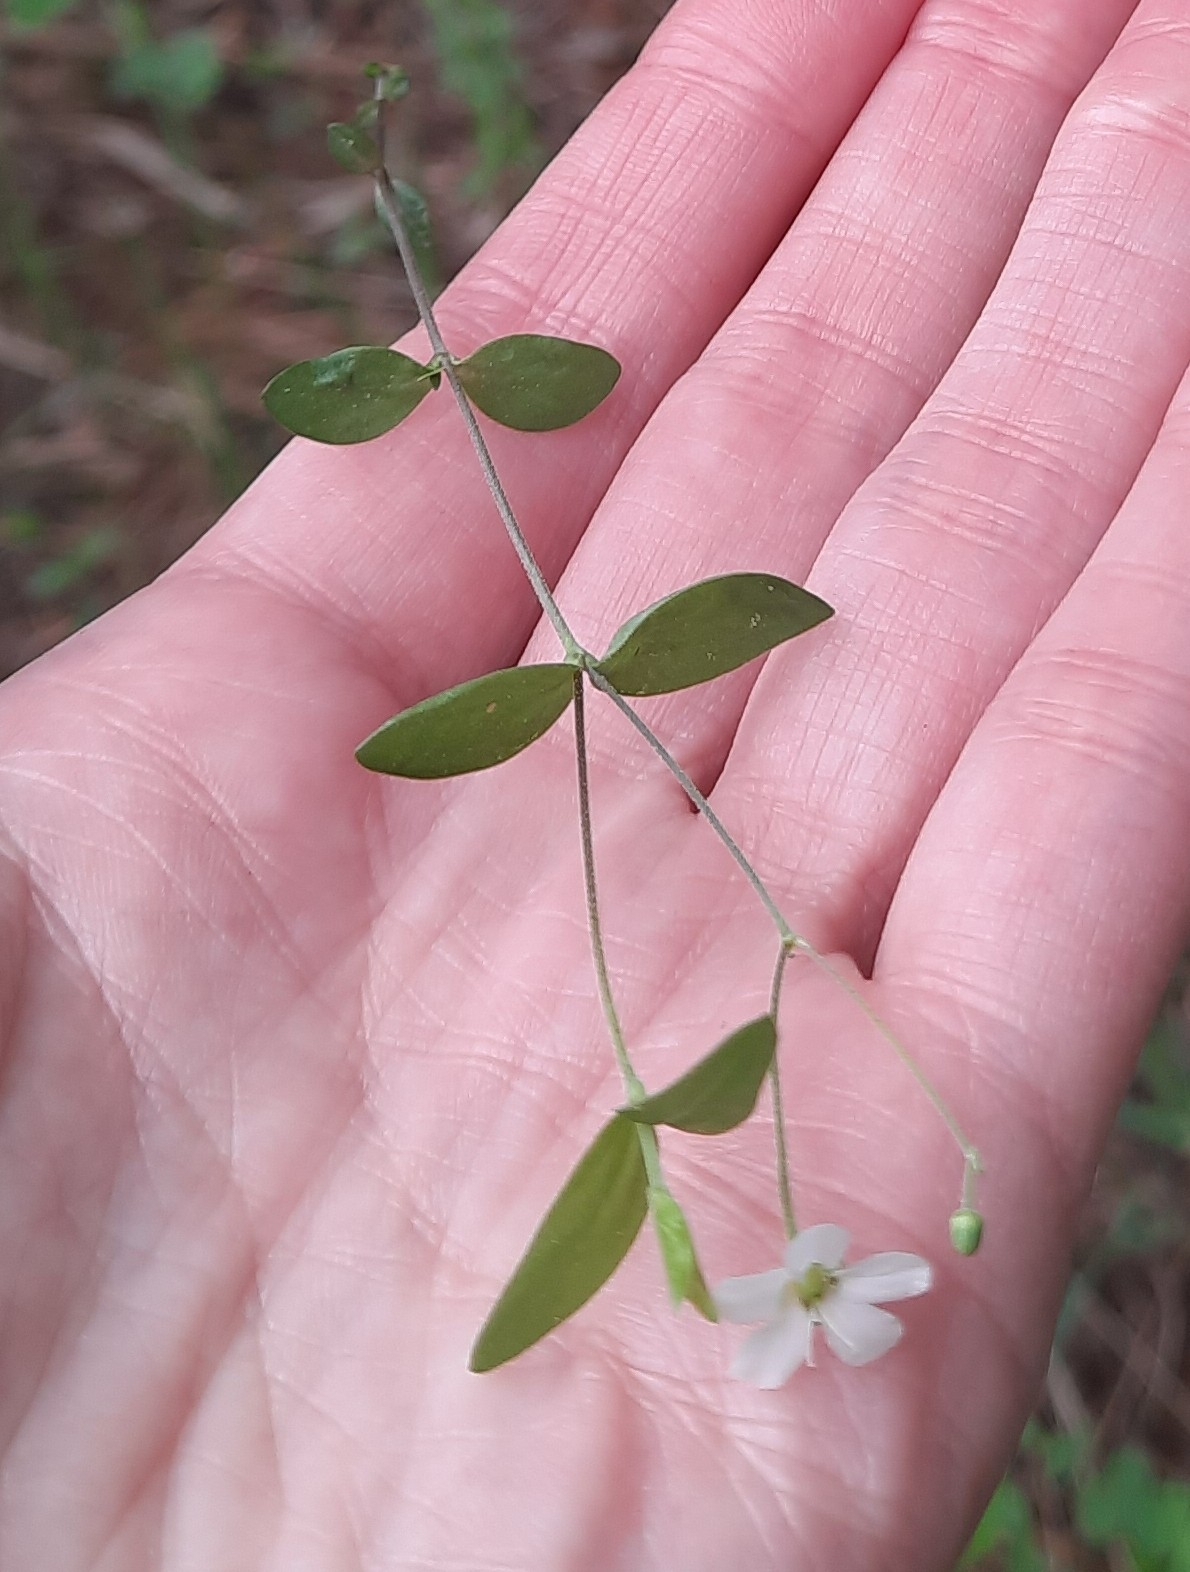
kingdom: Plantae
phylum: Tracheophyta
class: Magnoliopsida
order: Caryophyllales
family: Caryophyllaceae
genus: Moehringia
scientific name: Moehringia lateriflora
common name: Blunt-leaved sandwort
